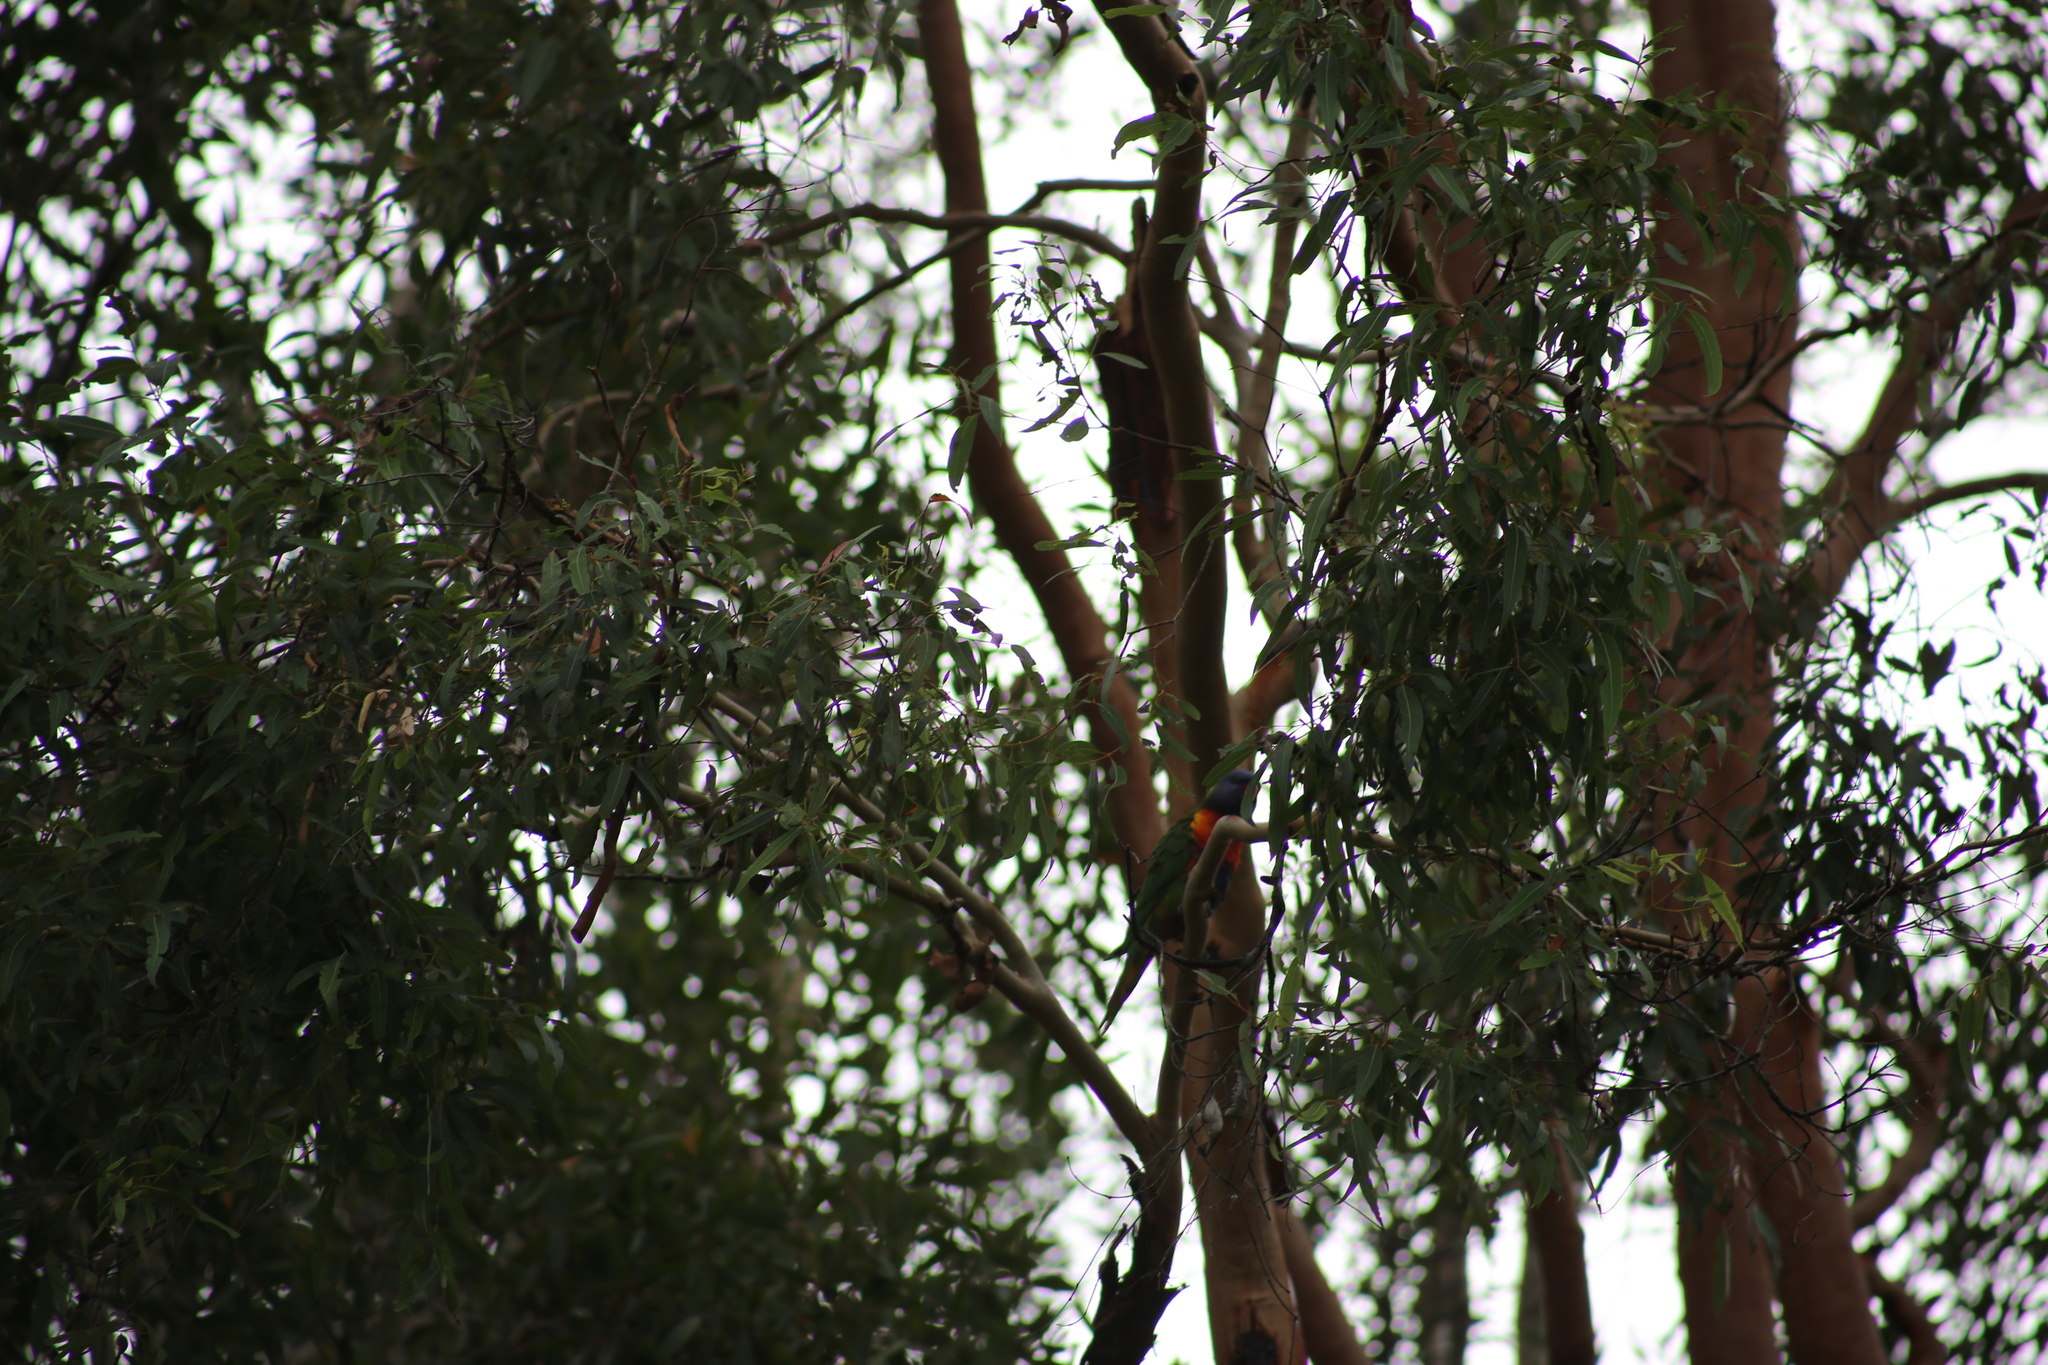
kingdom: Animalia
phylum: Chordata
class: Aves
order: Psittaciformes
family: Psittacidae
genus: Trichoglossus
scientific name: Trichoglossus haematodus
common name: Coconut lorikeet
